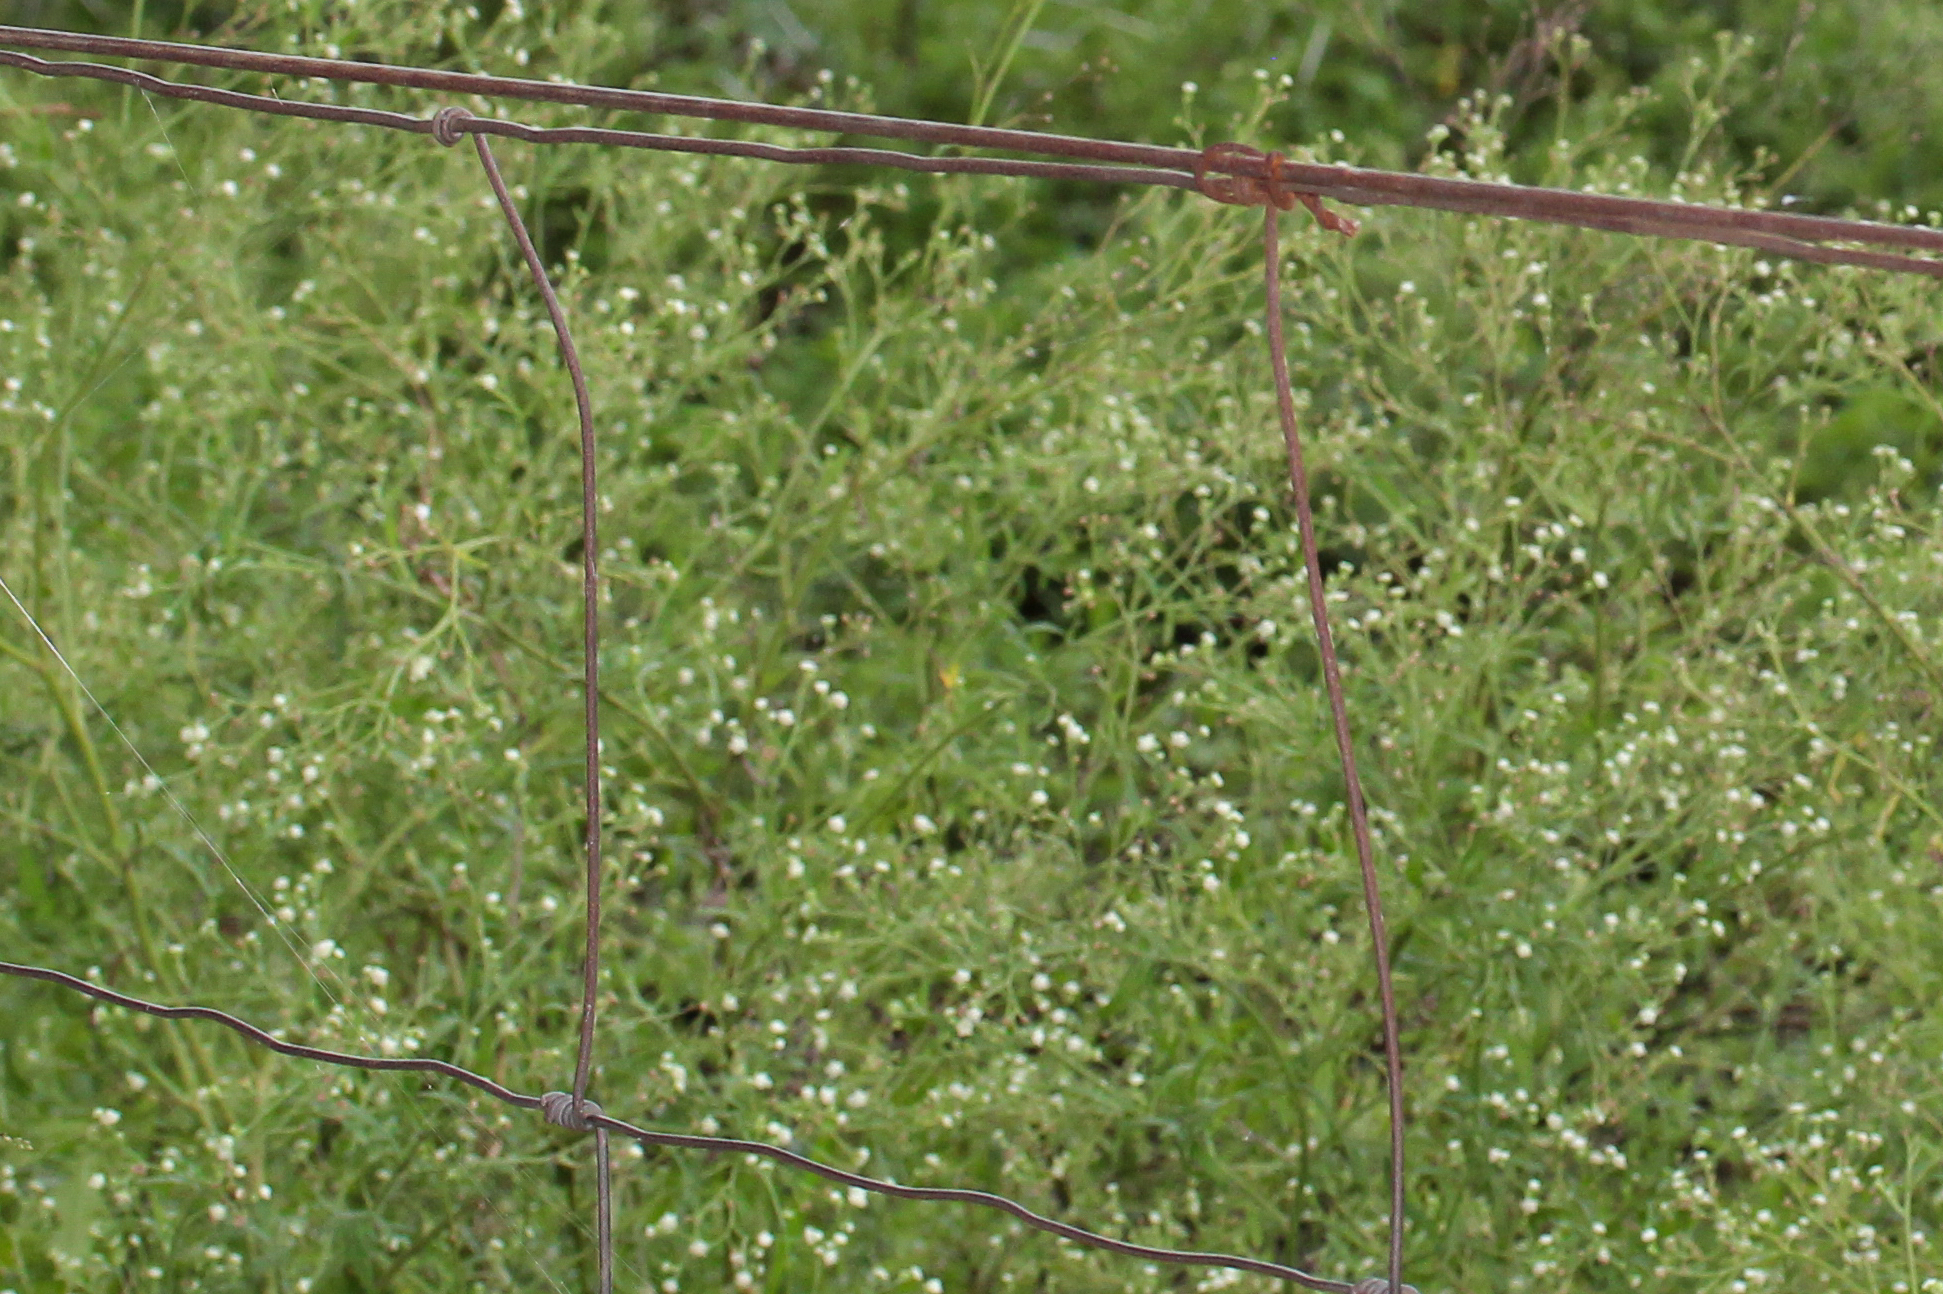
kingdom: Plantae
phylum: Tracheophyta
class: Magnoliopsida
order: Asterales
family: Asteraceae
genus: Parthenium
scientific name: Parthenium hysterophorus
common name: Santa maria feverfew
